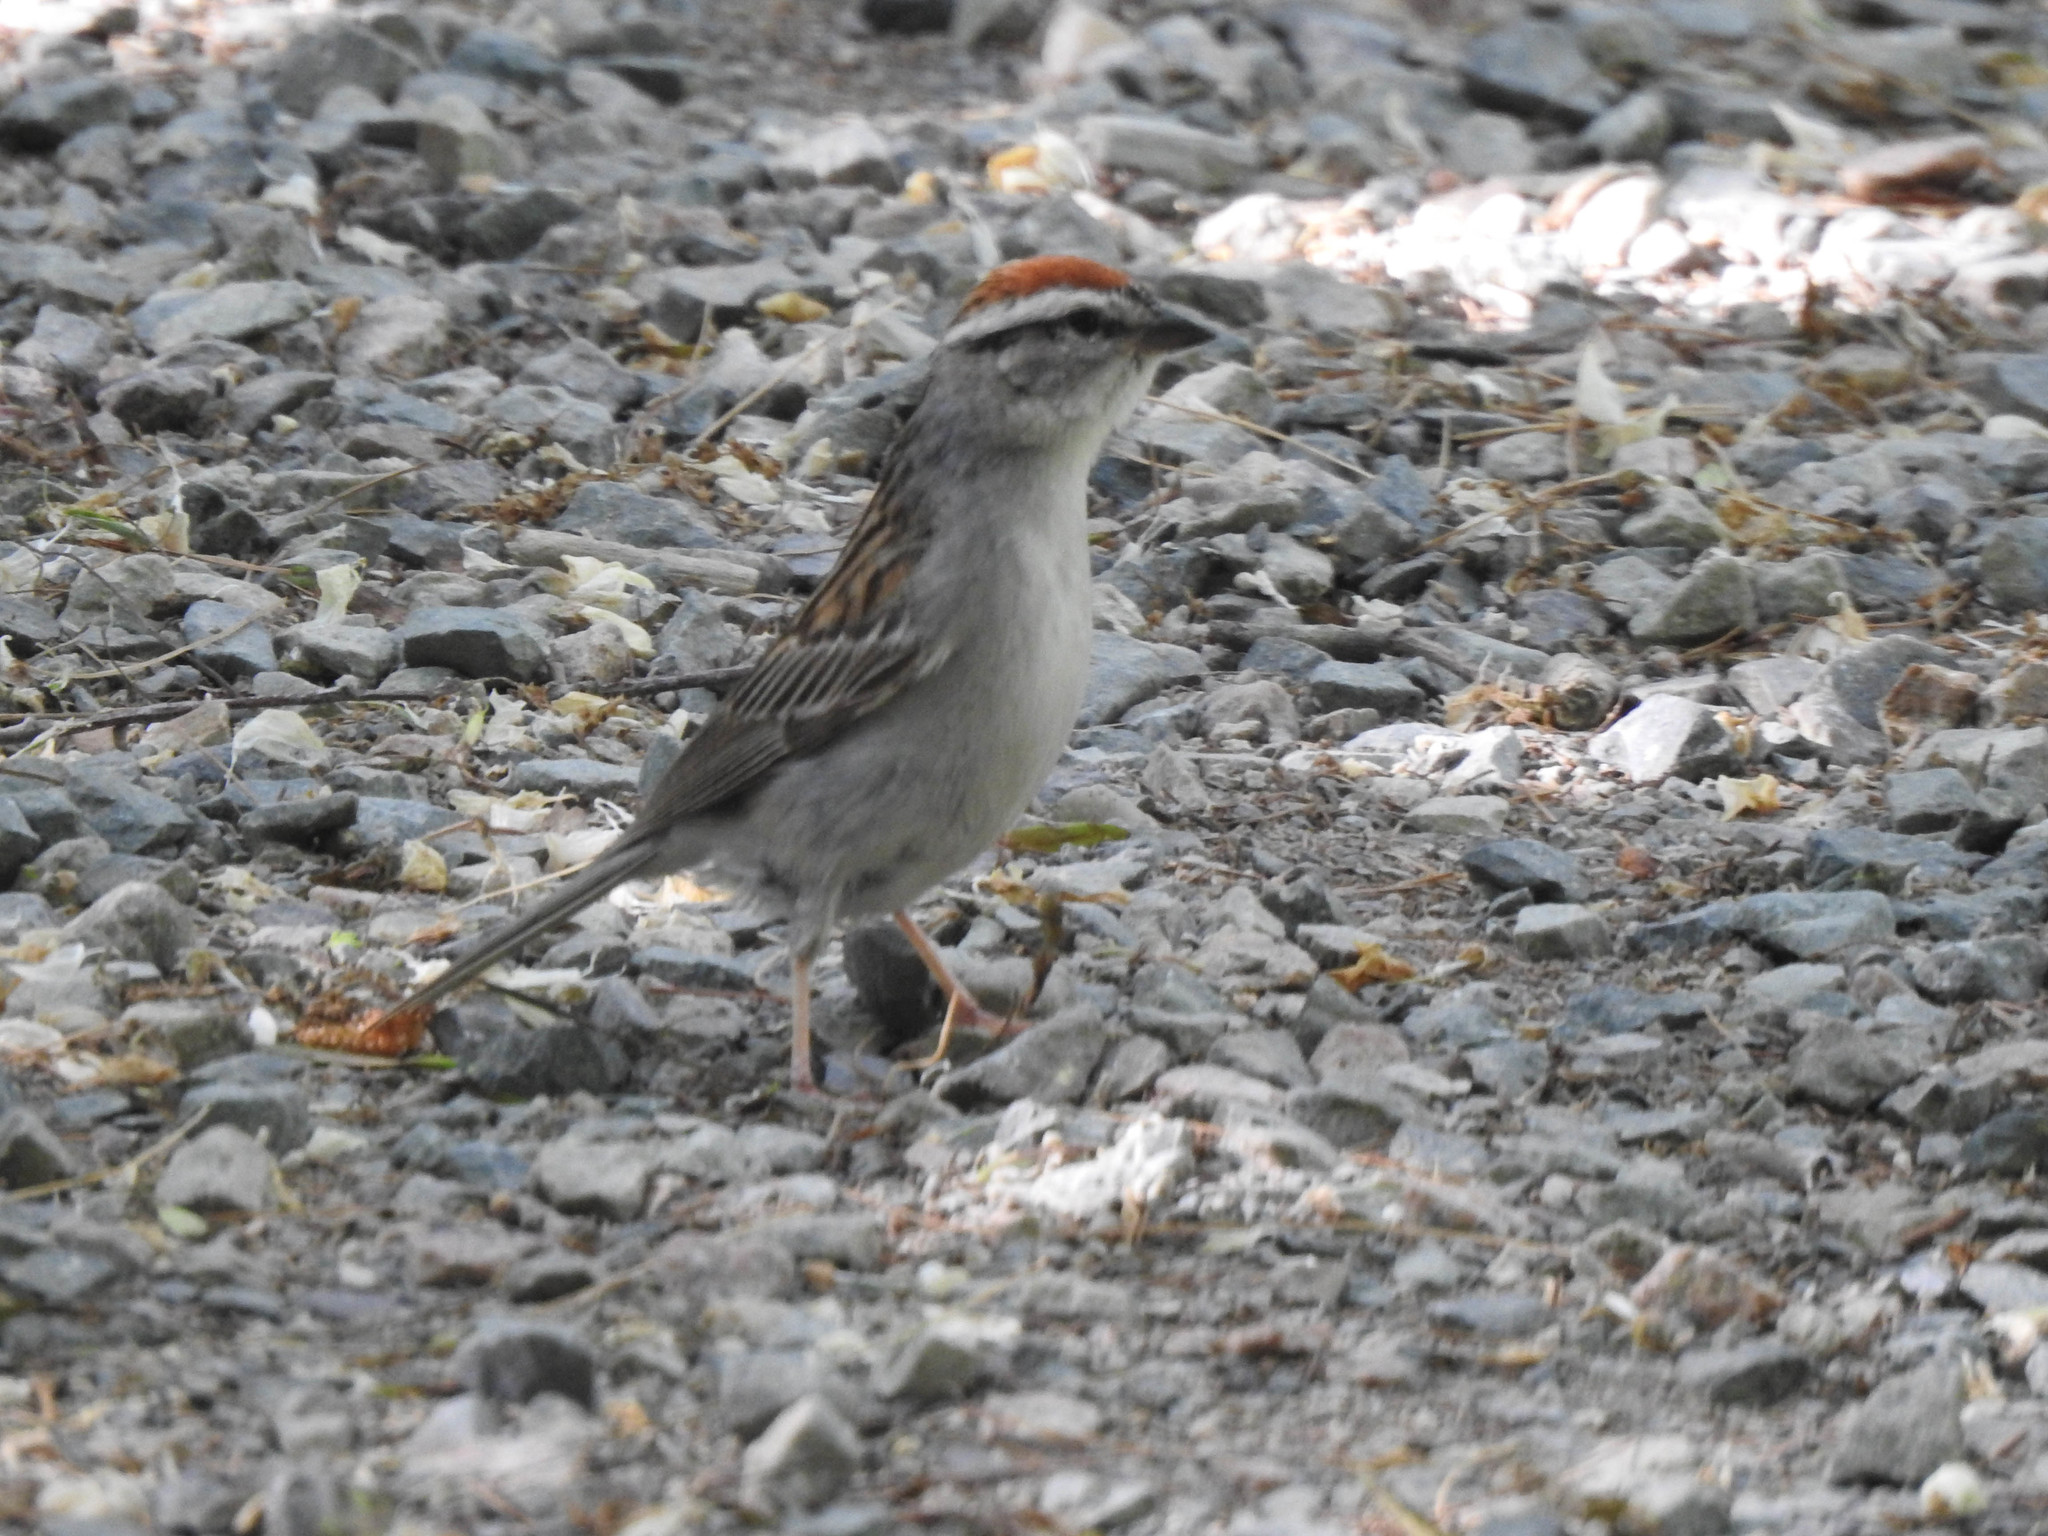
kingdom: Animalia
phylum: Chordata
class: Aves
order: Passeriformes
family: Passerellidae
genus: Spizella
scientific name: Spizella passerina
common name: Chipping sparrow
